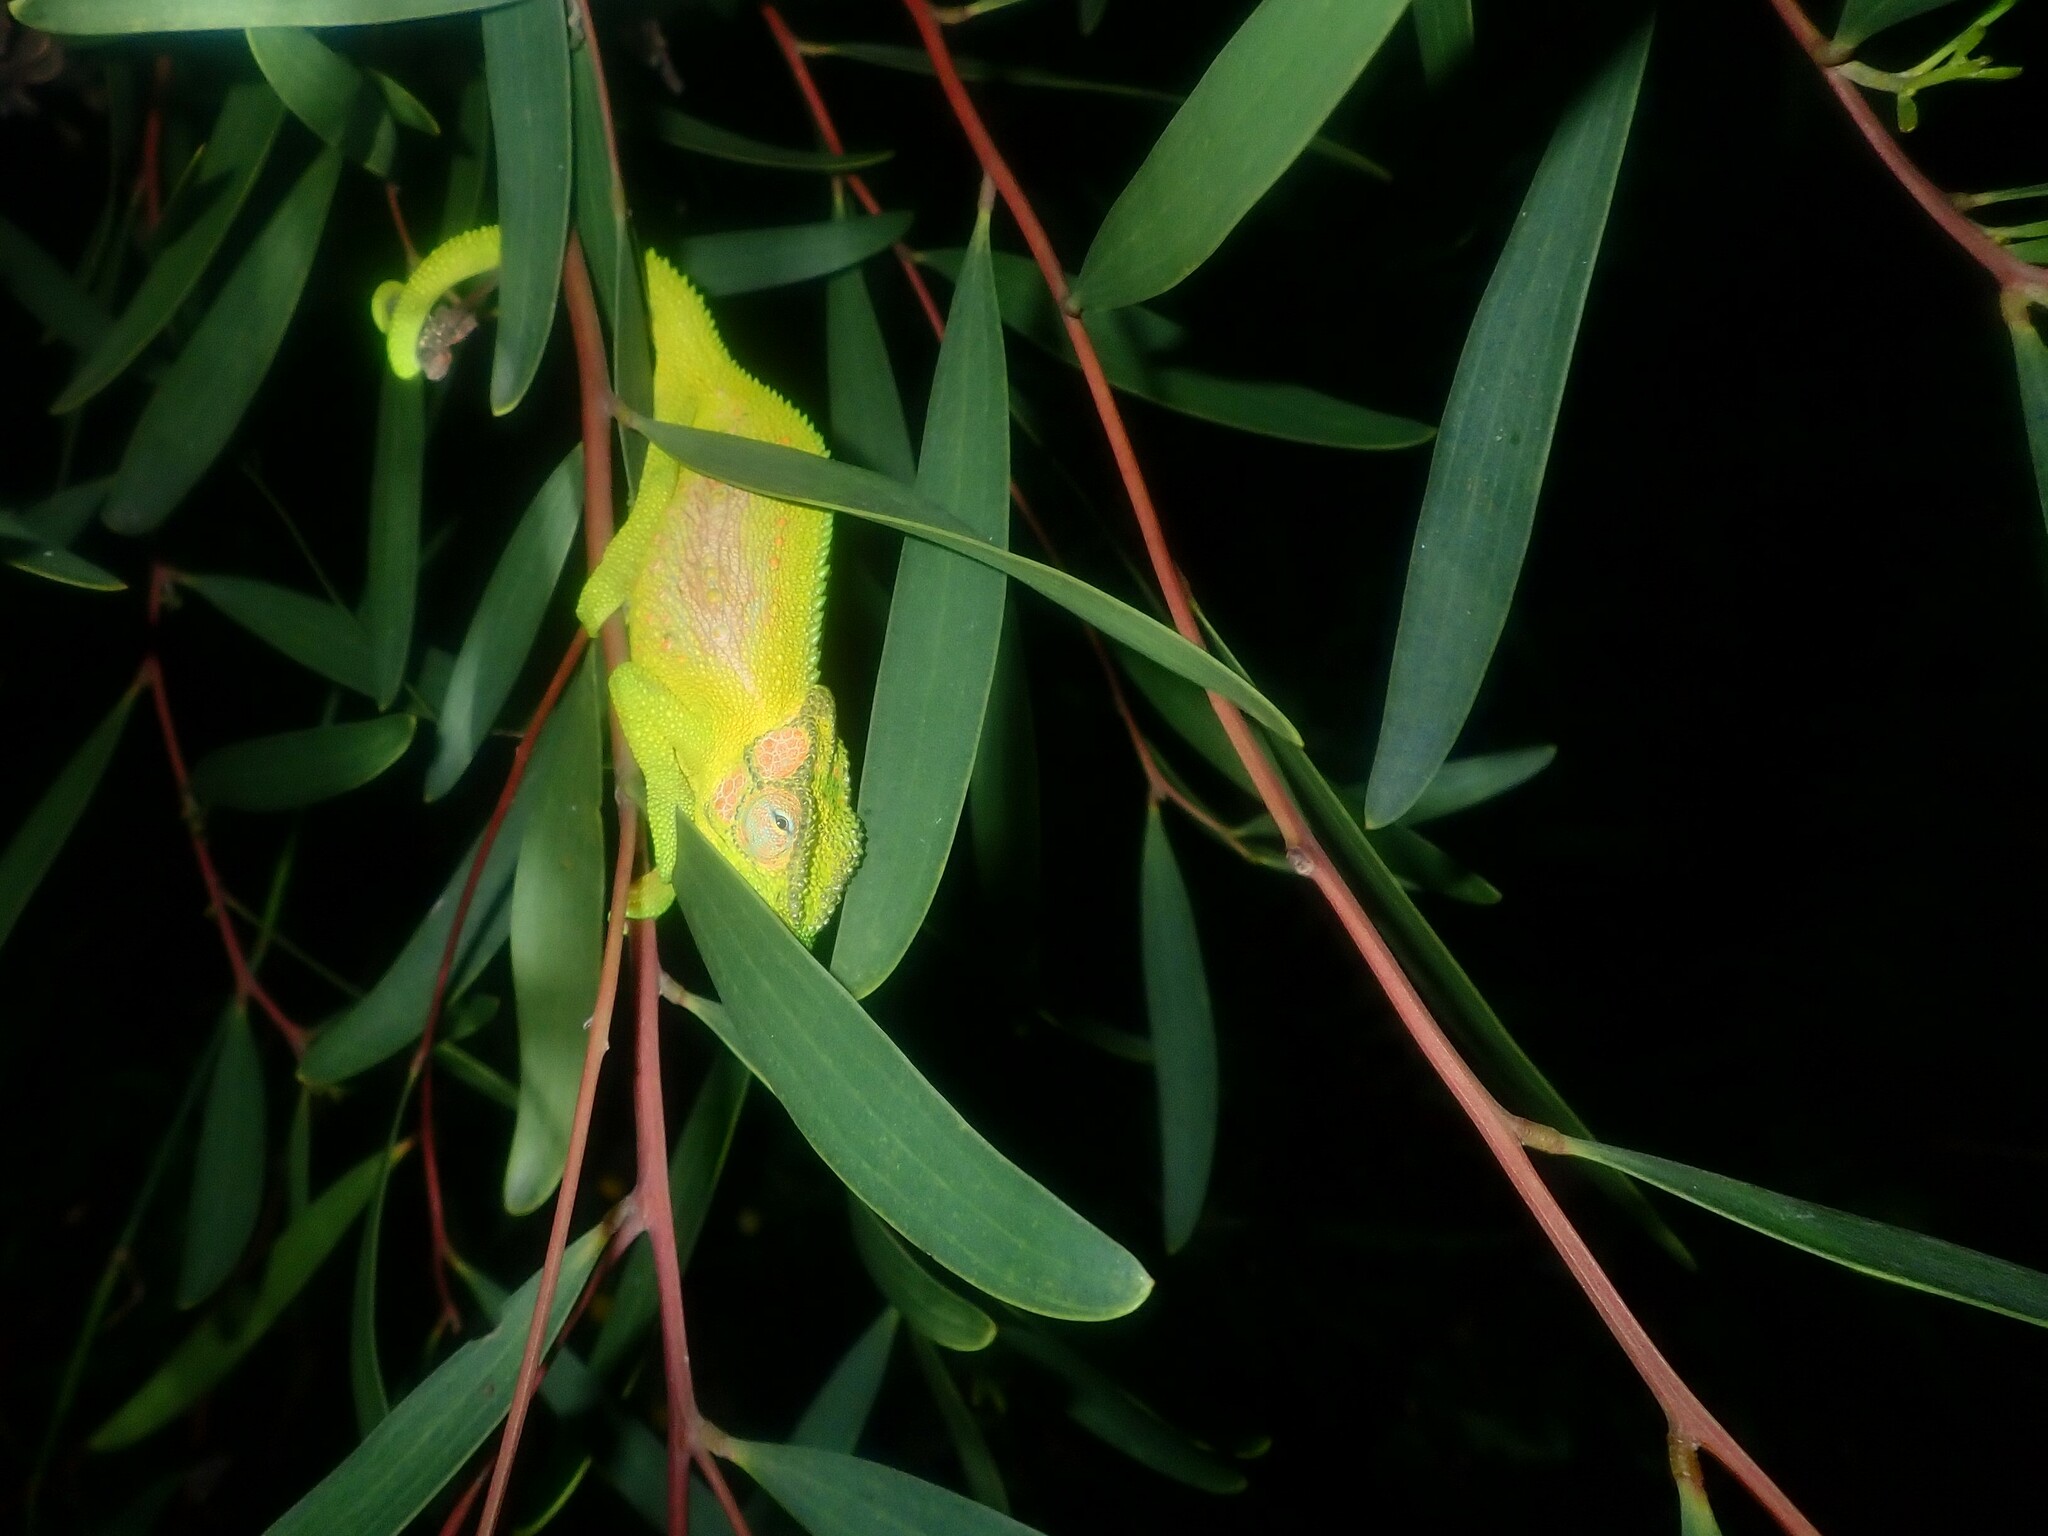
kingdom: Animalia
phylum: Chordata
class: Squamata
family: Chamaeleonidae
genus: Bradypodion
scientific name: Bradypodion pumilum
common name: Cape dwarf chameleon
